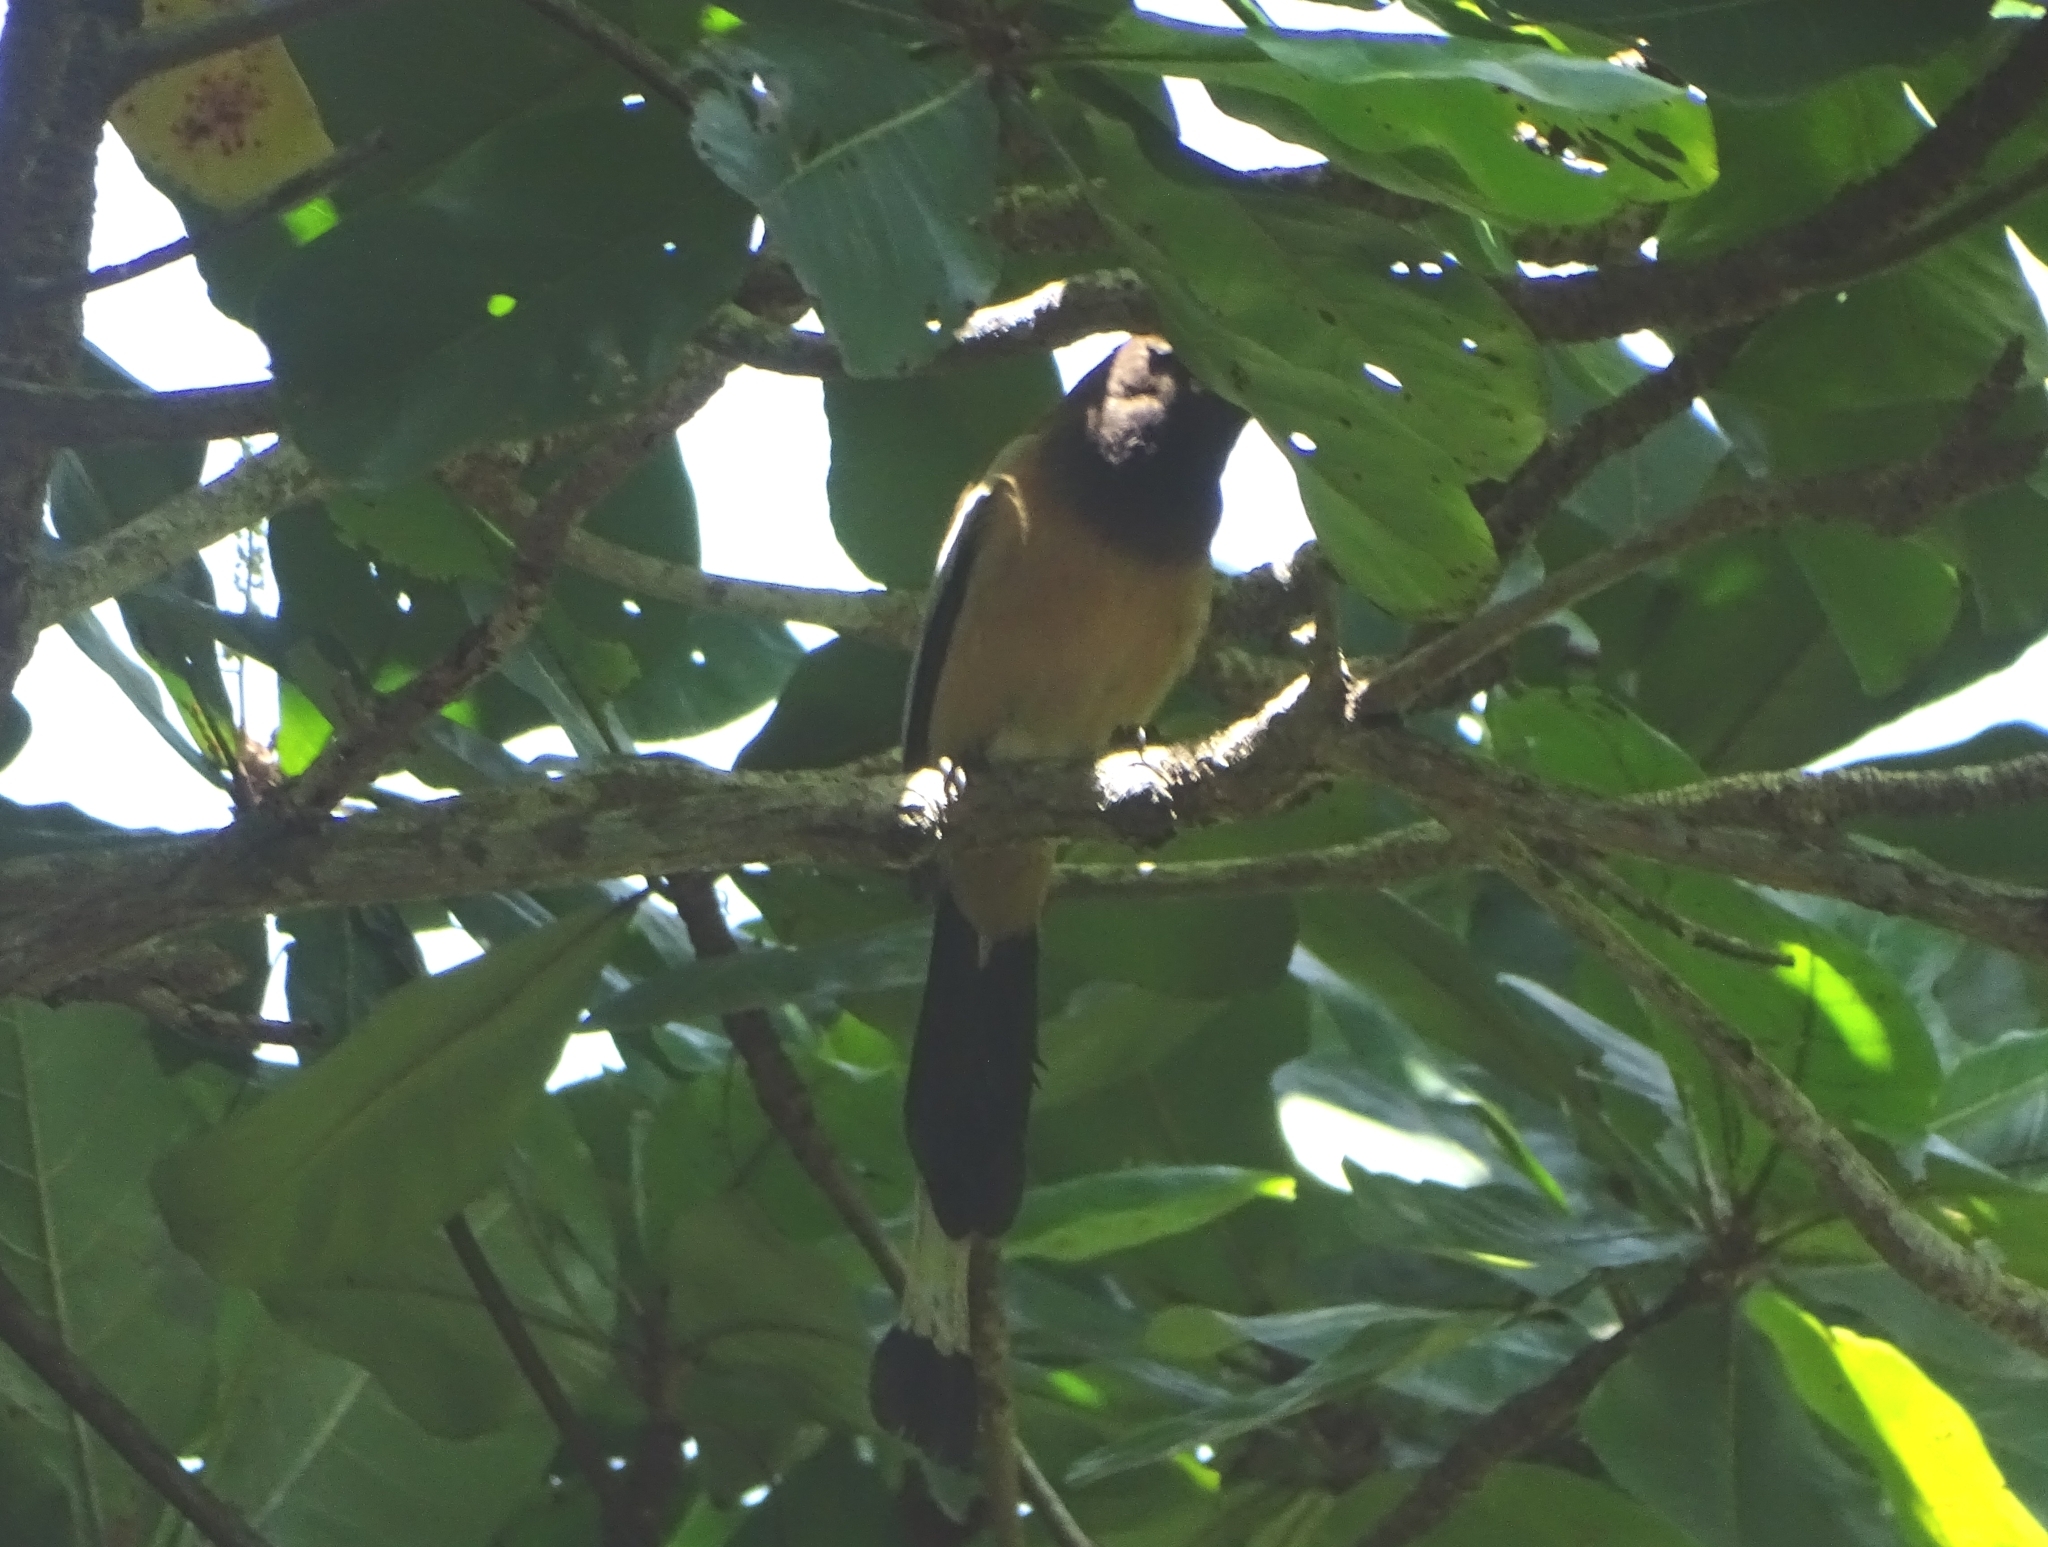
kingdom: Animalia
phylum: Chordata
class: Aves
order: Passeriformes
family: Corvidae
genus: Dendrocitta
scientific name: Dendrocitta vagabunda
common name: Rufous treepie
